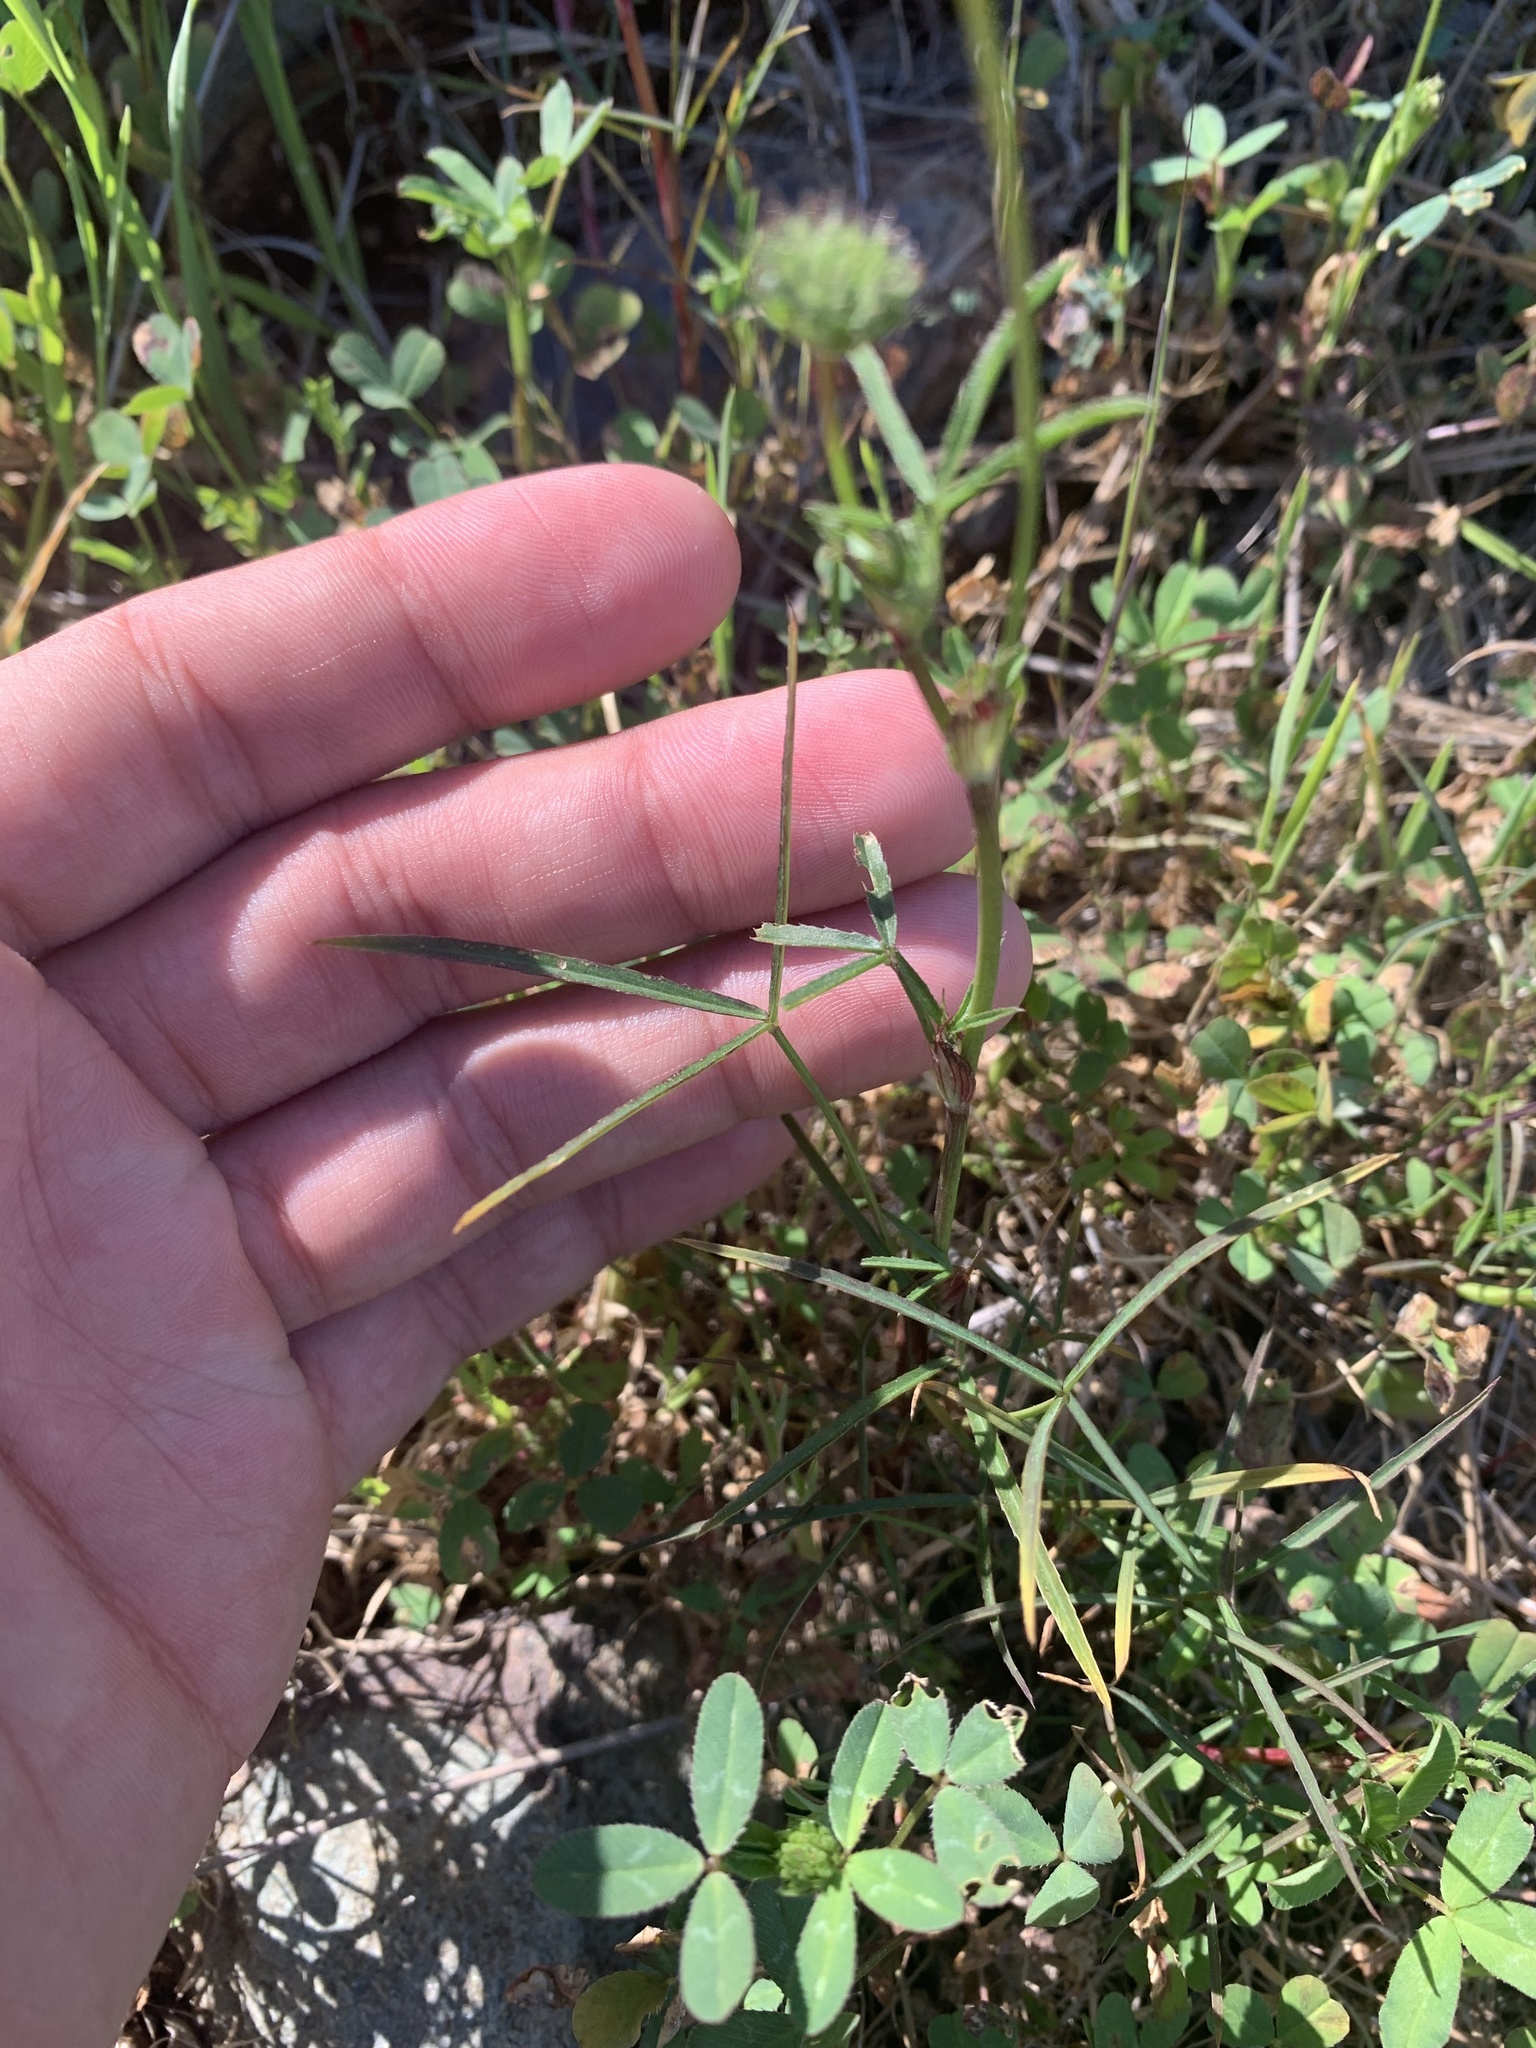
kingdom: Plantae
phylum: Tracheophyta
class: Magnoliopsida
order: Fabales
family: Fabaceae
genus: Trifolium
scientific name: Trifolium willdenovii
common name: Tomcat clover
